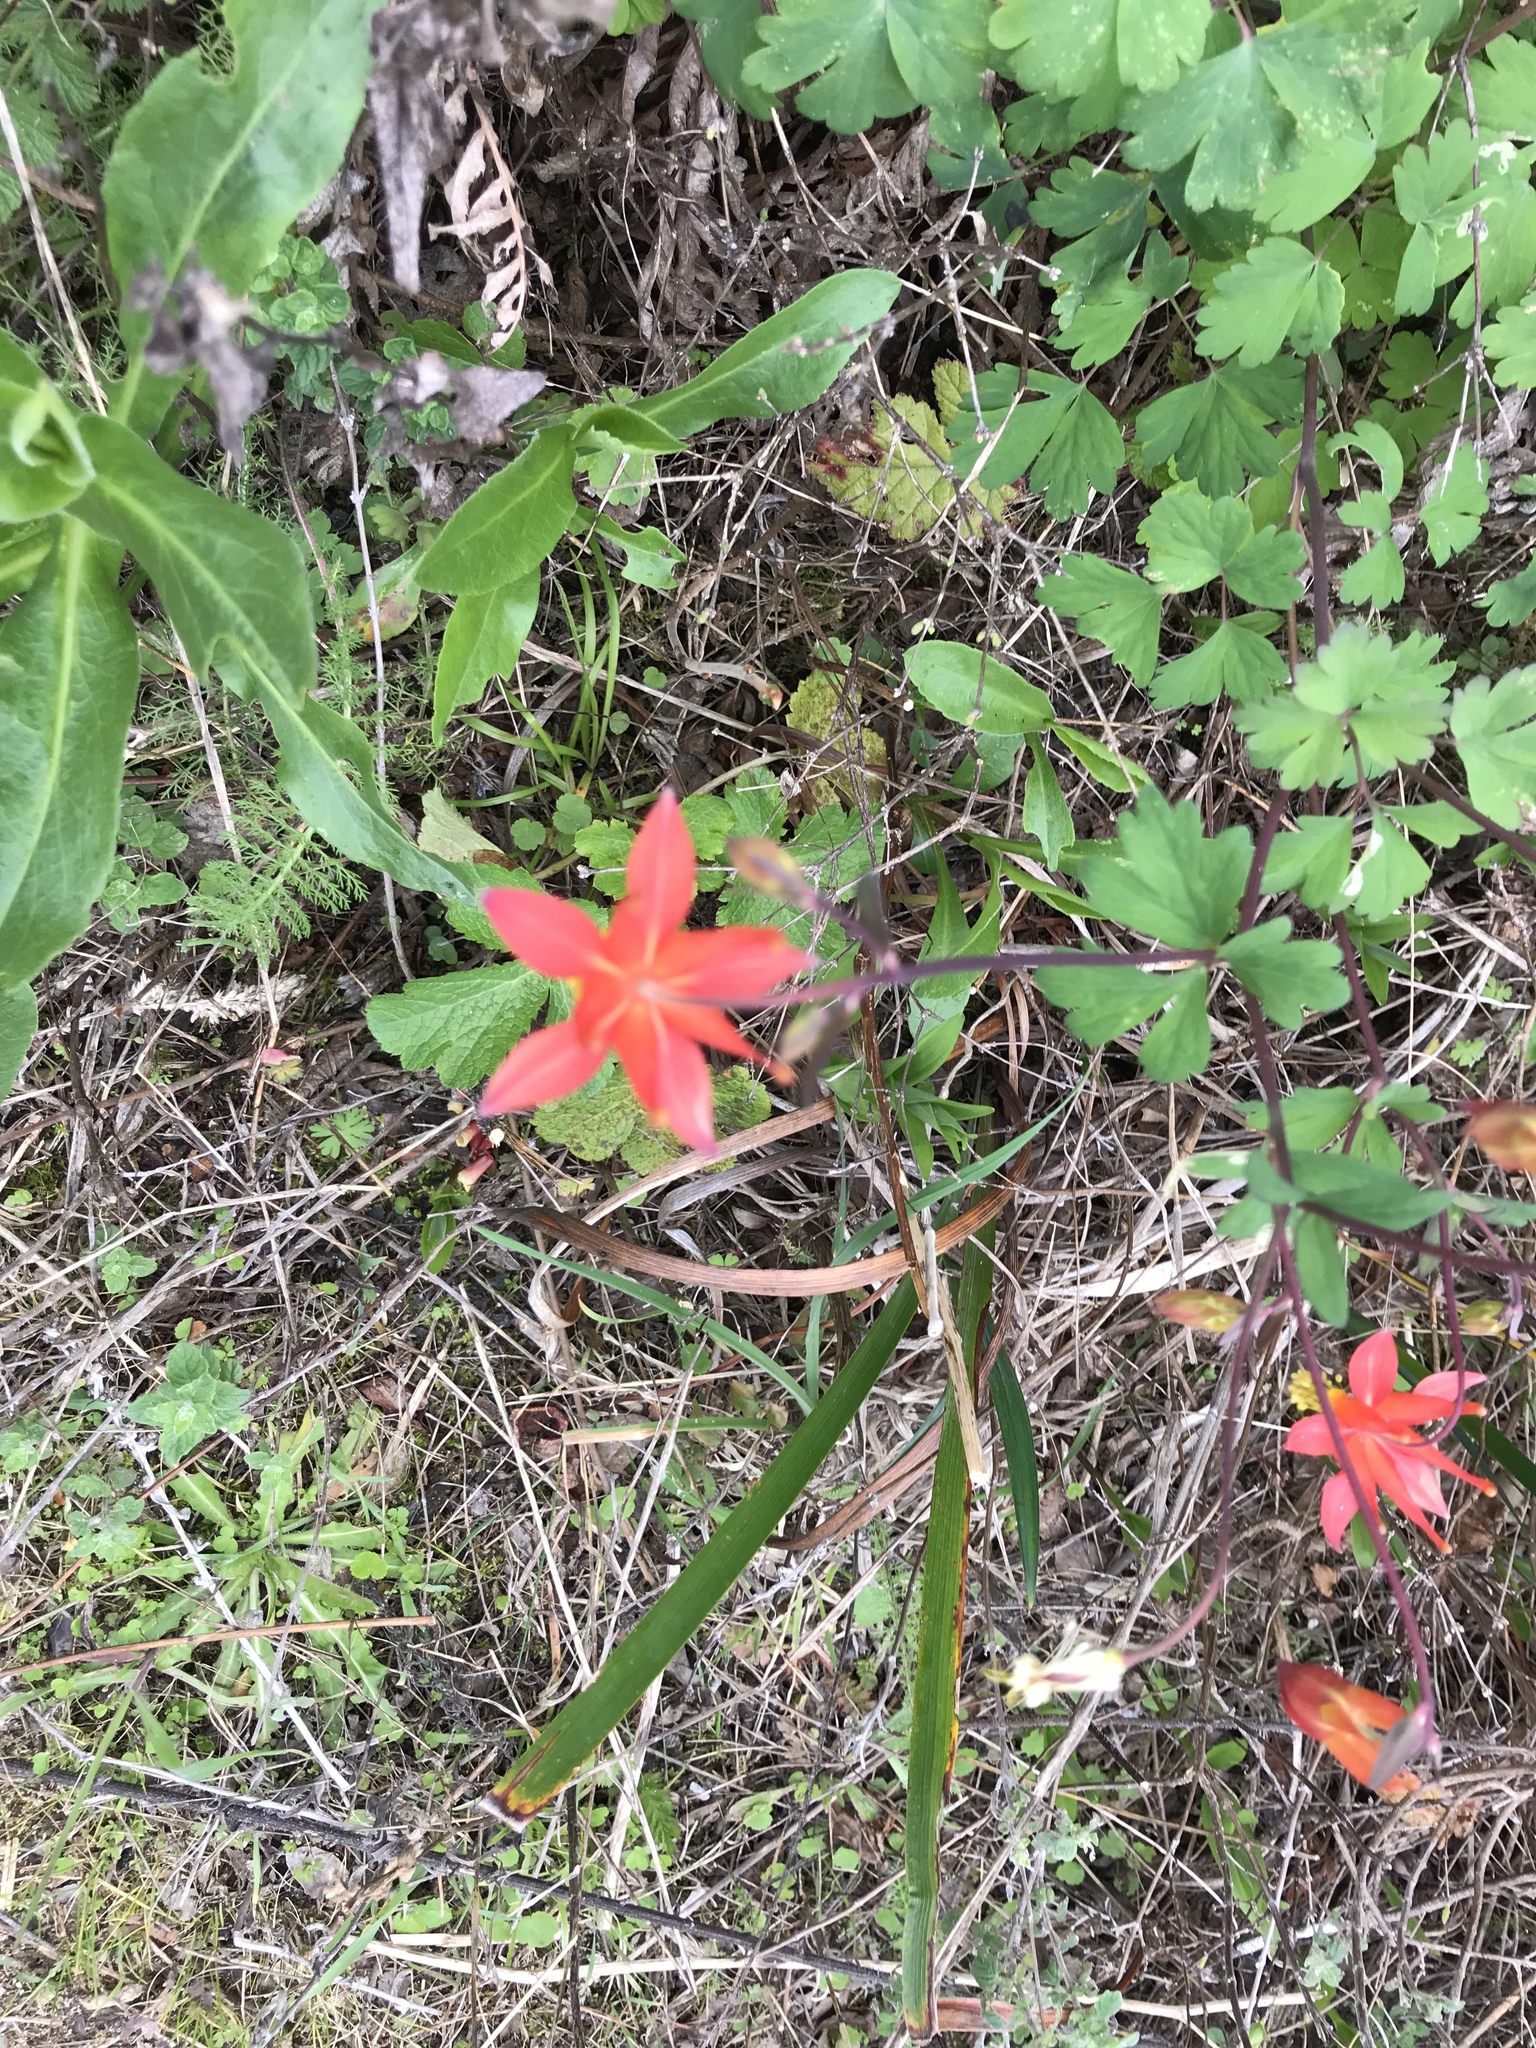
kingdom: Plantae
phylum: Tracheophyta
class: Magnoliopsida
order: Ranunculales
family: Ranunculaceae
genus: Aquilegia
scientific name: Aquilegia formosa
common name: Sitka columbine
